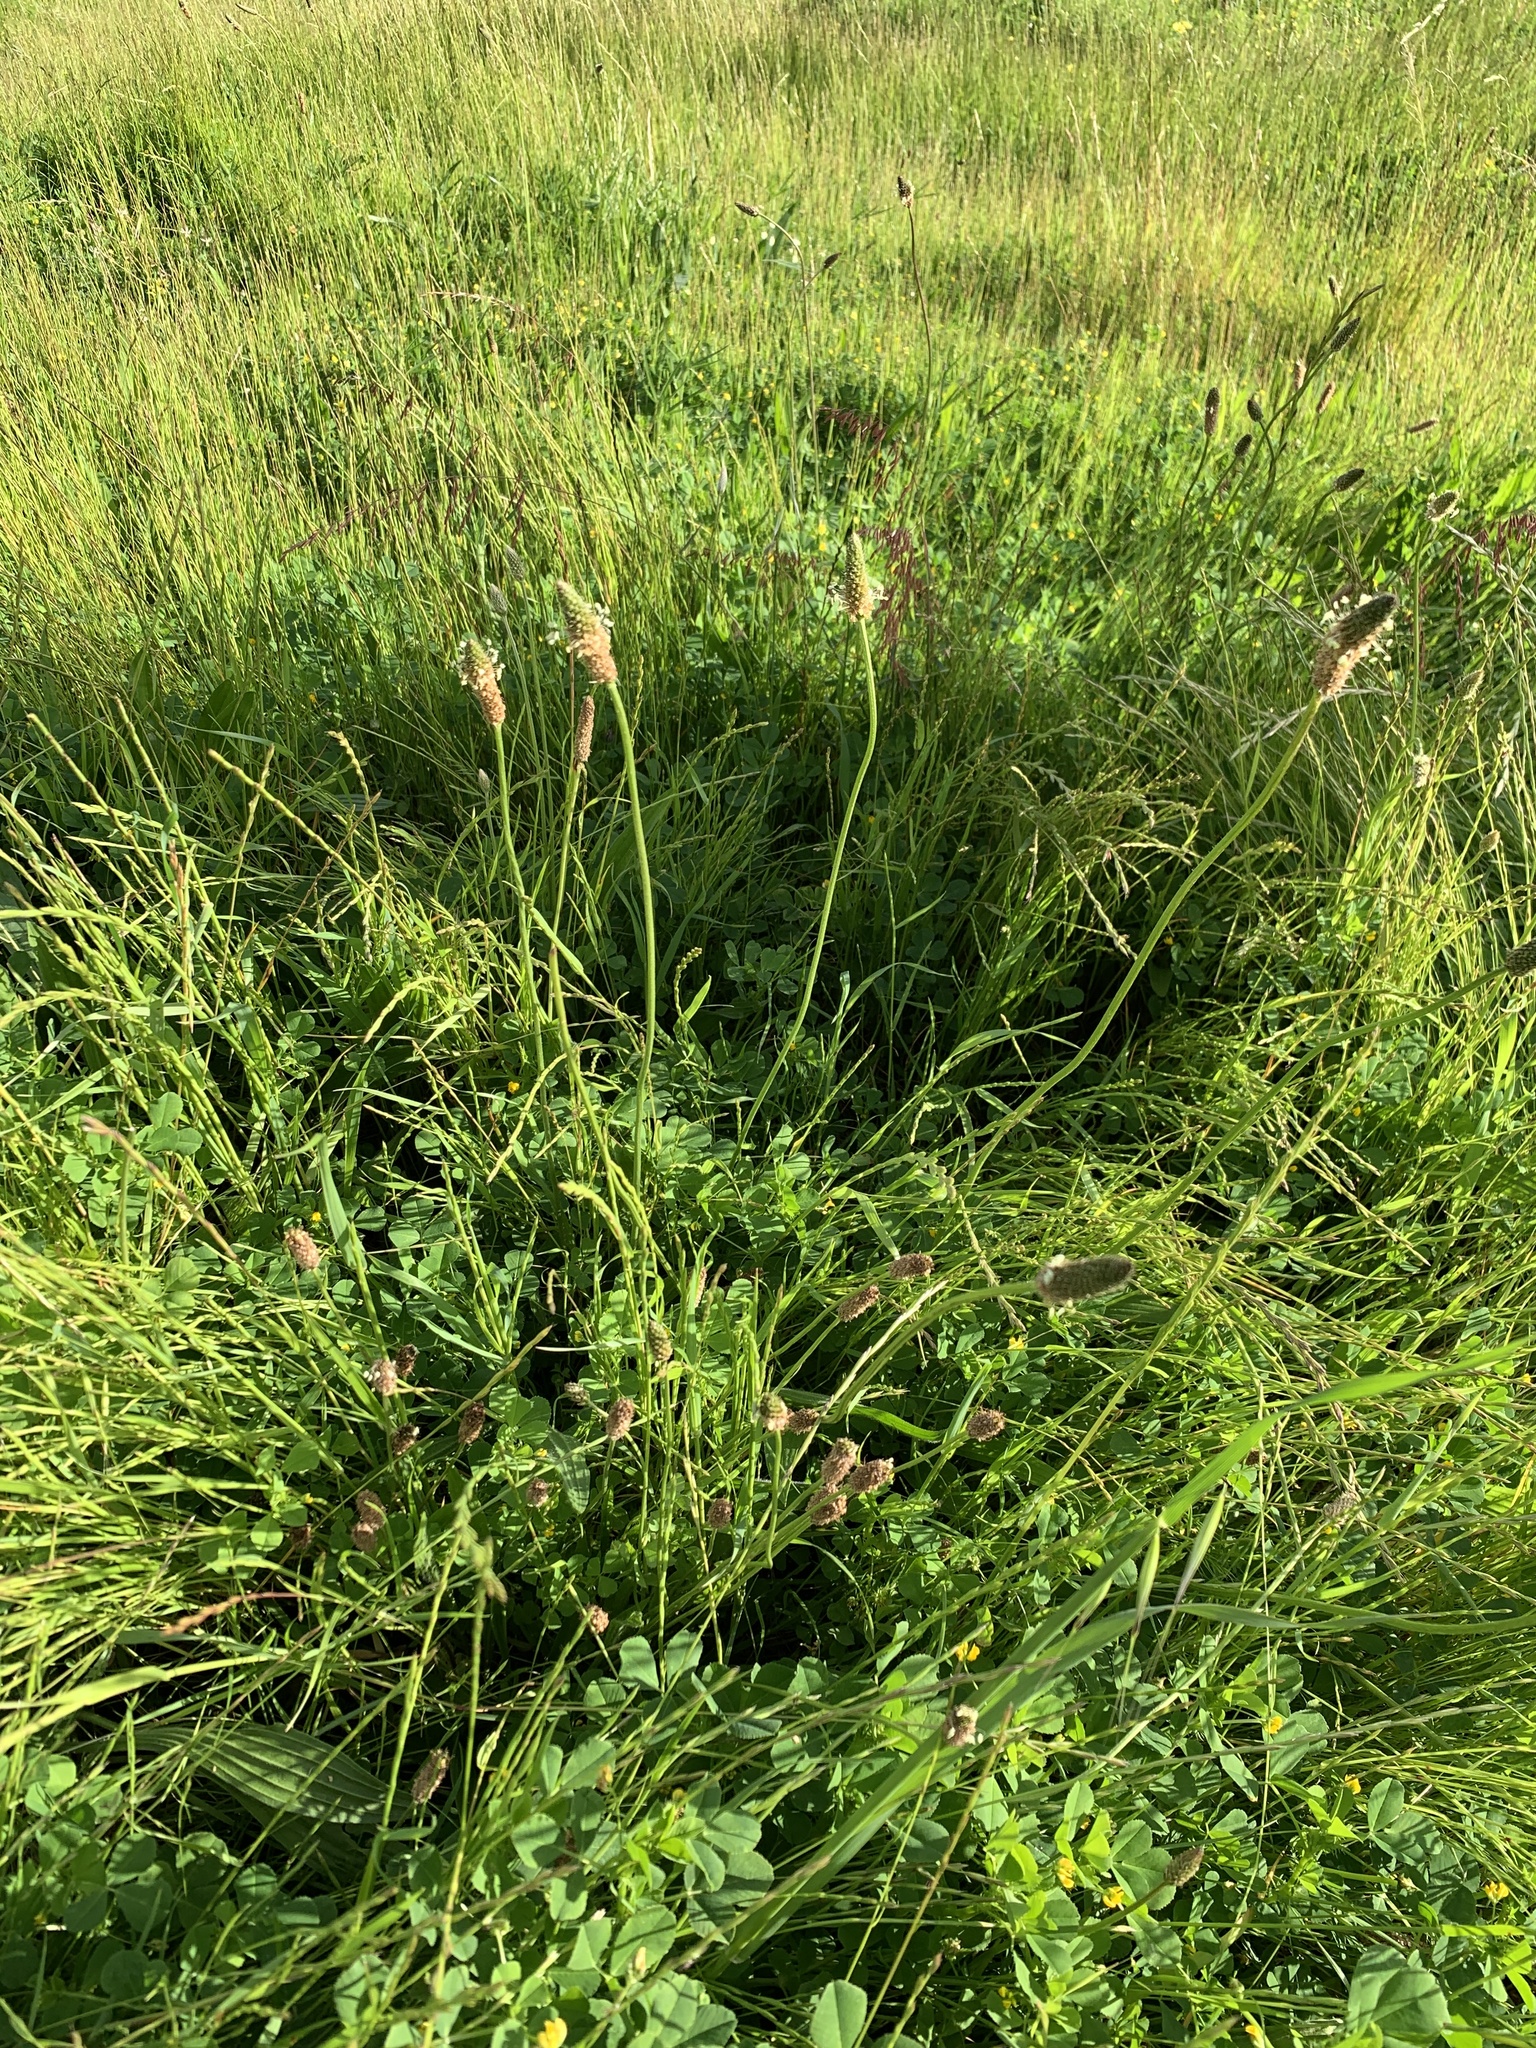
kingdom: Plantae
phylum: Tracheophyta
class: Magnoliopsida
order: Lamiales
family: Plantaginaceae
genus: Plantago
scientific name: Plantago lanceolata
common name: Ribwort plantain
